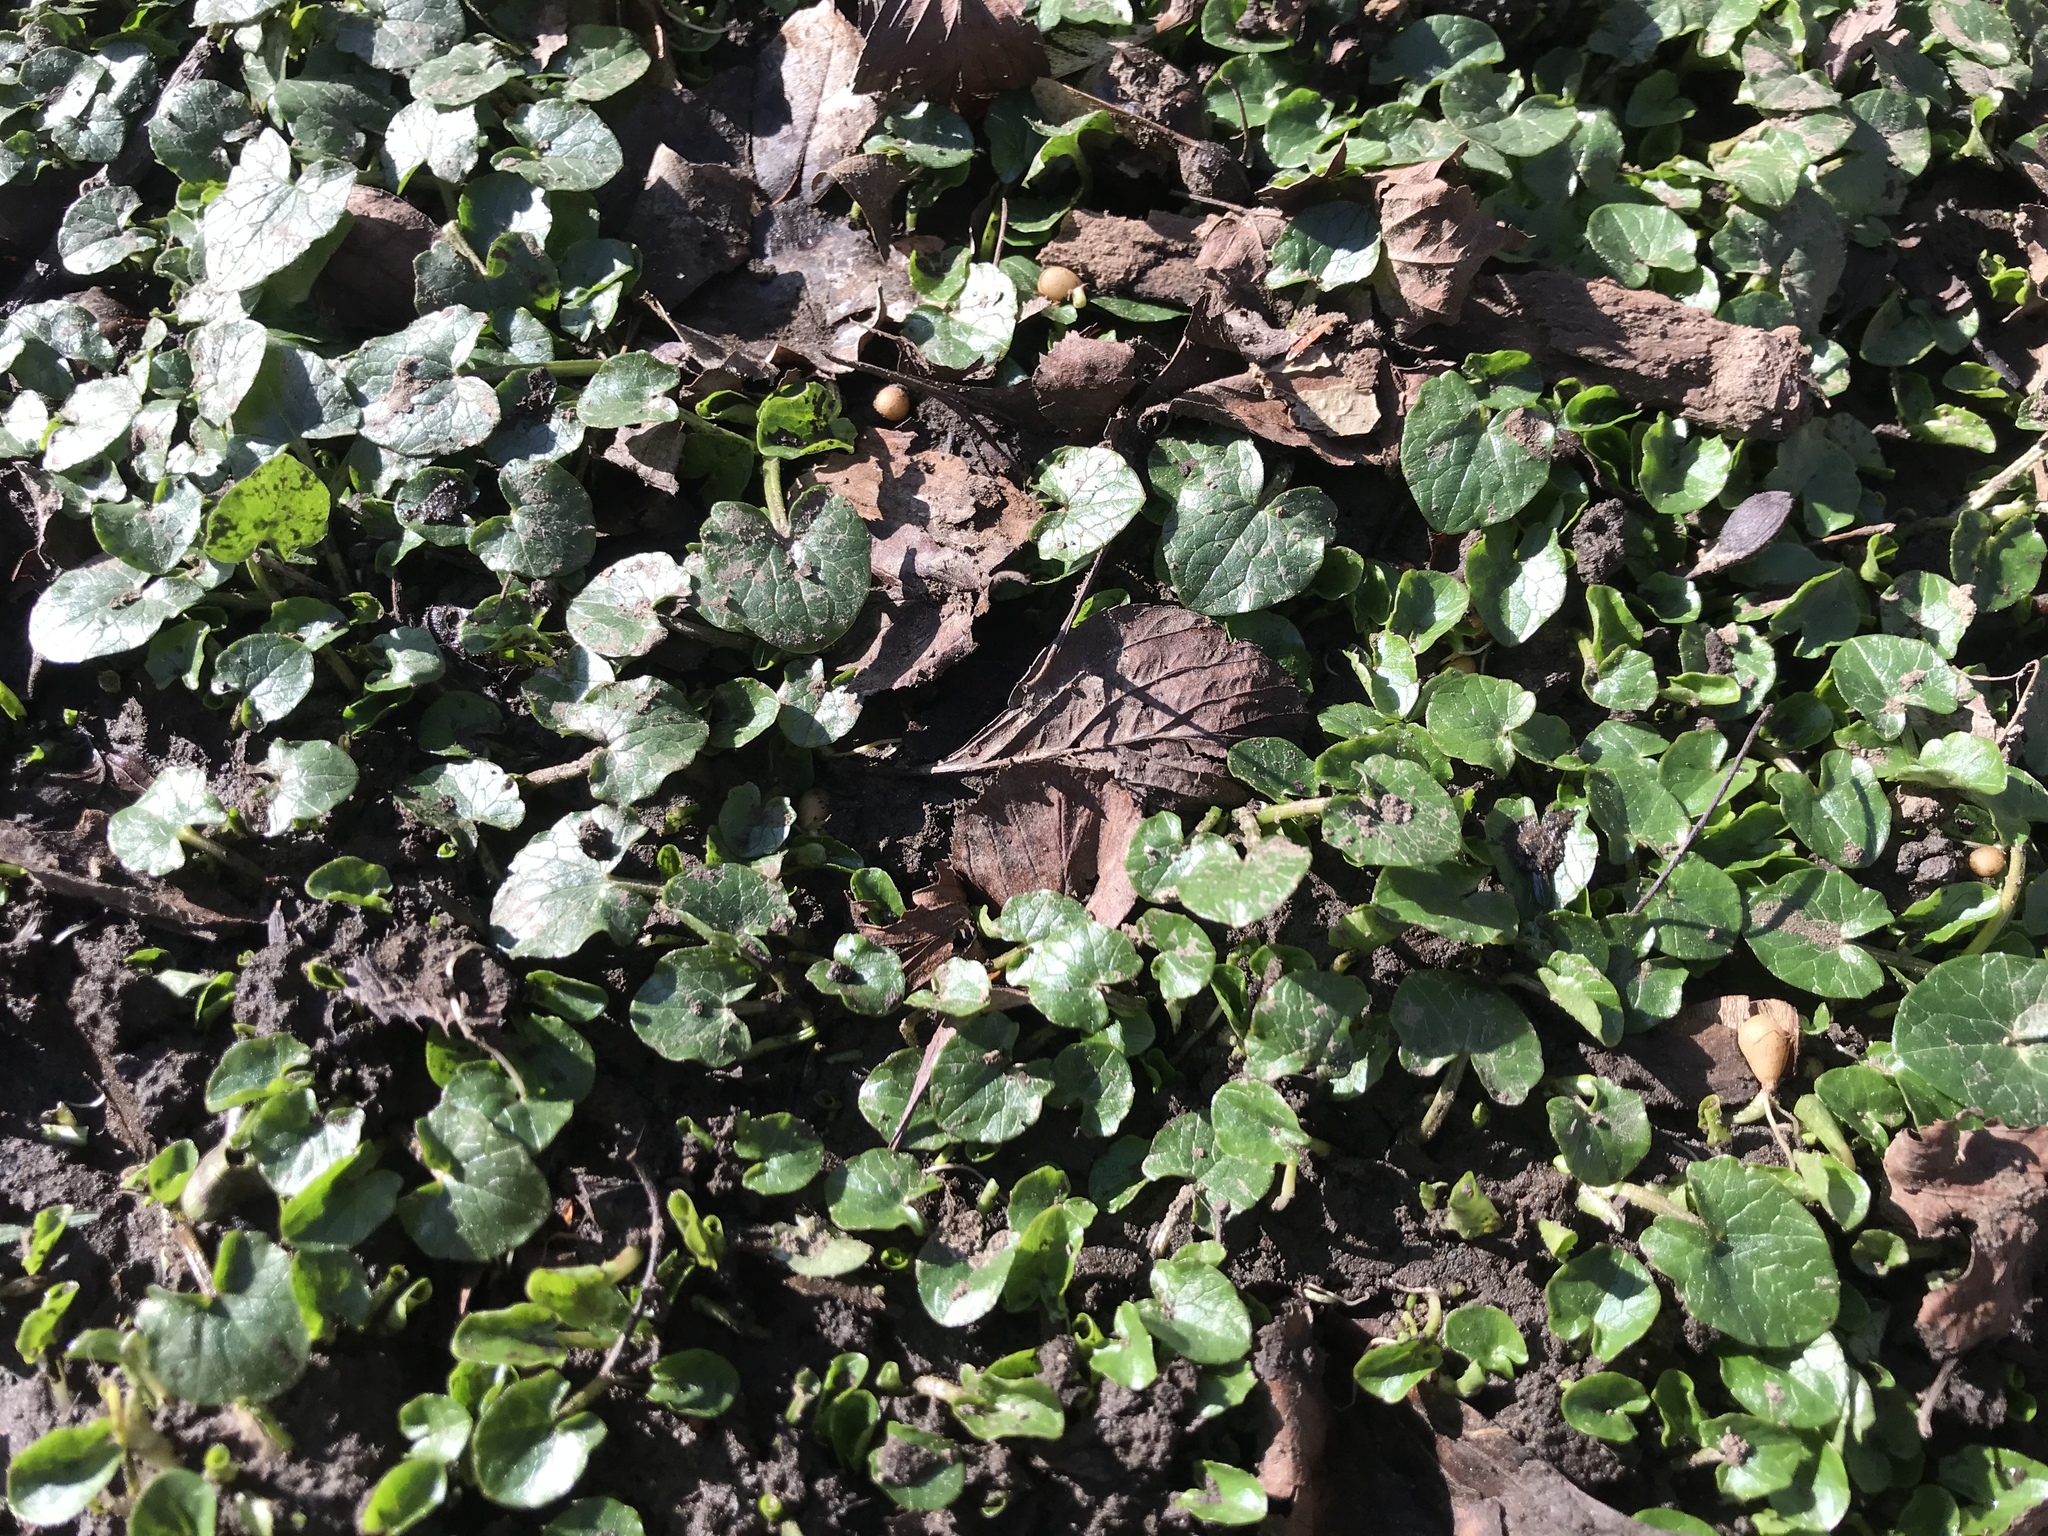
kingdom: Plantae
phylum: Tracheophyta
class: Magnoliopsida
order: Ranunculales
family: Ranunculaceae
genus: Ficaria
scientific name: Ficaria verna
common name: Lesser celandine
